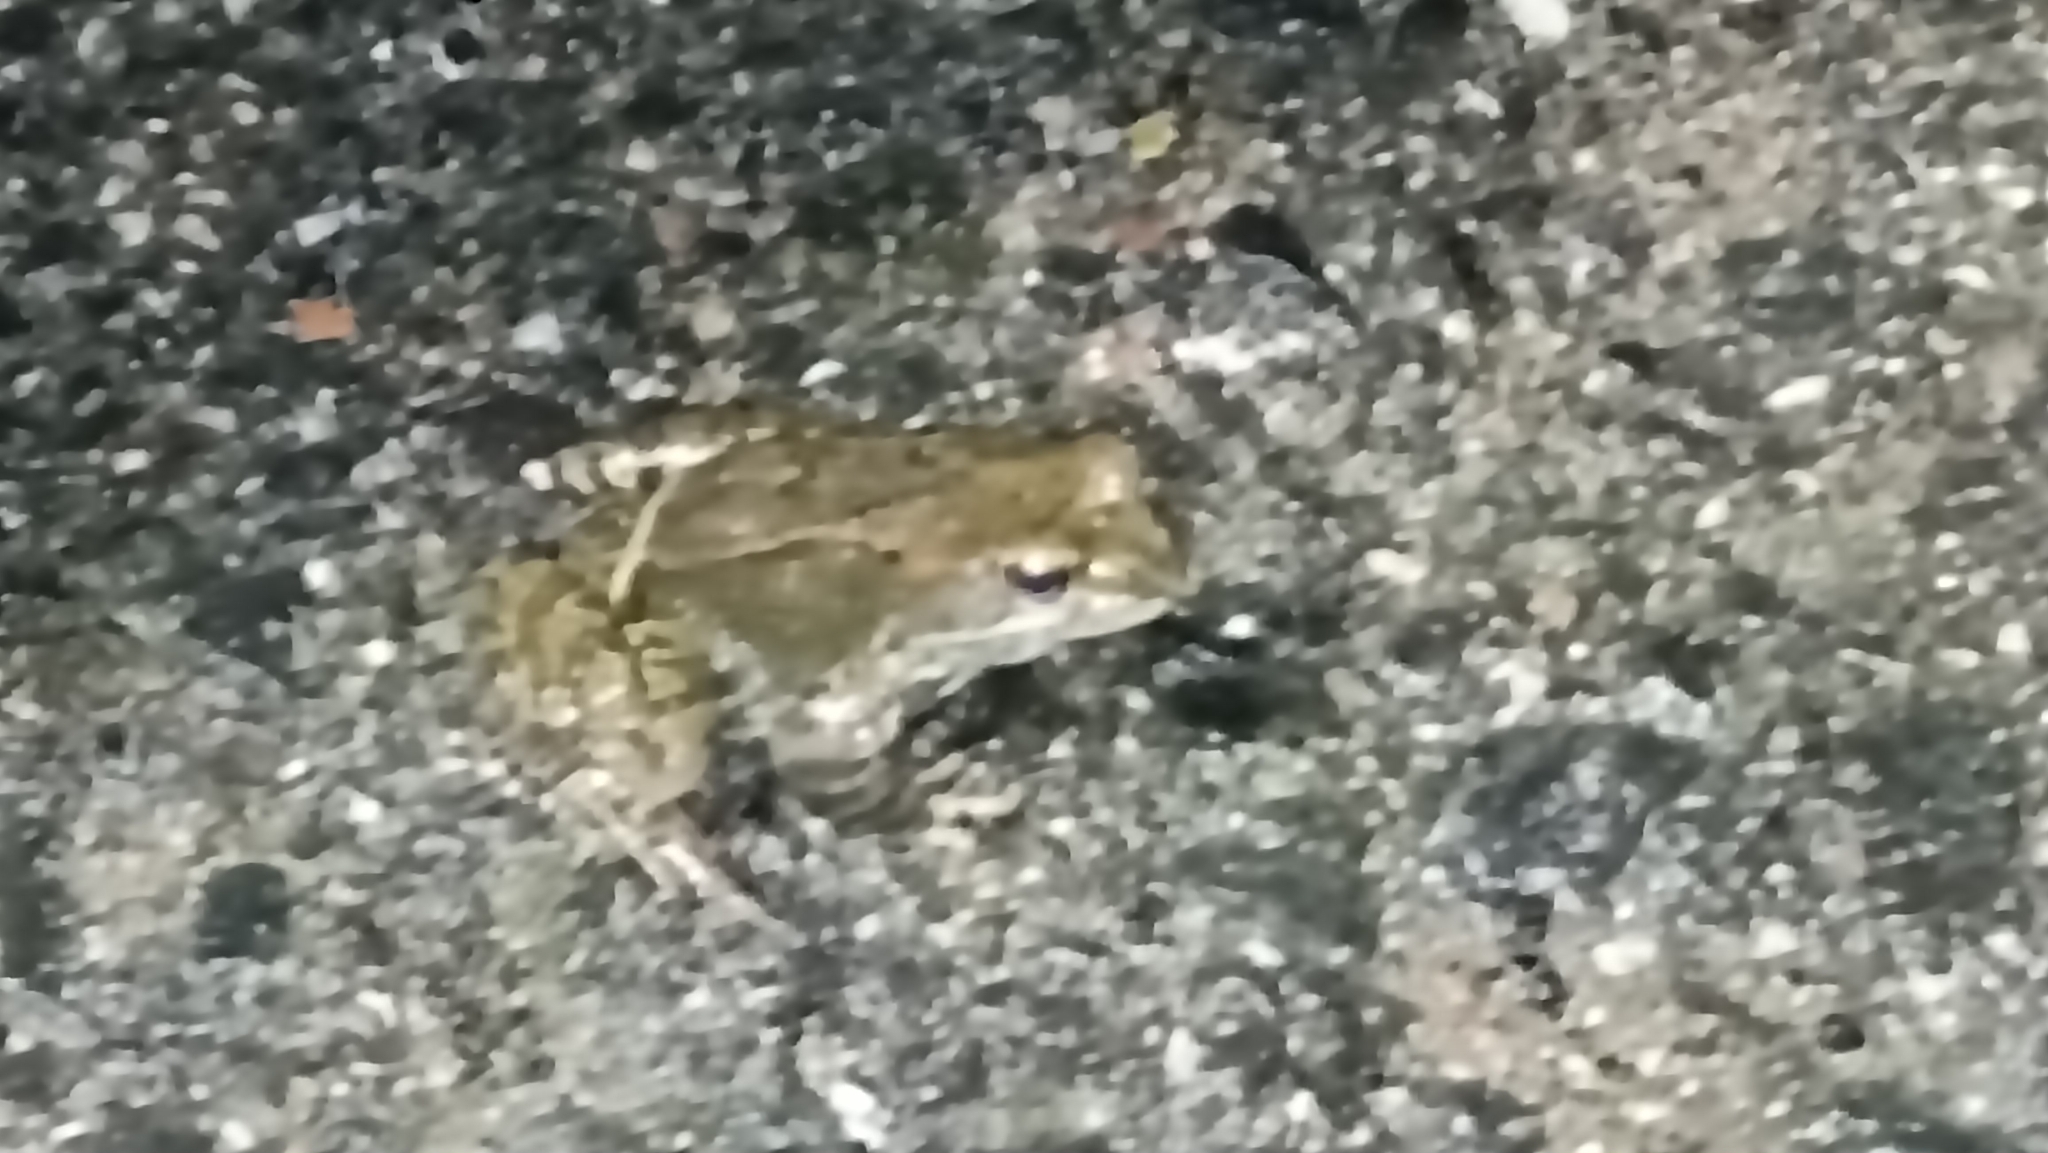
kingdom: Animalia
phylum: Chordata
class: Amphibia
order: Anura
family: Ranidae
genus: Rana
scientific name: Rana temporaria
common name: Common frog
